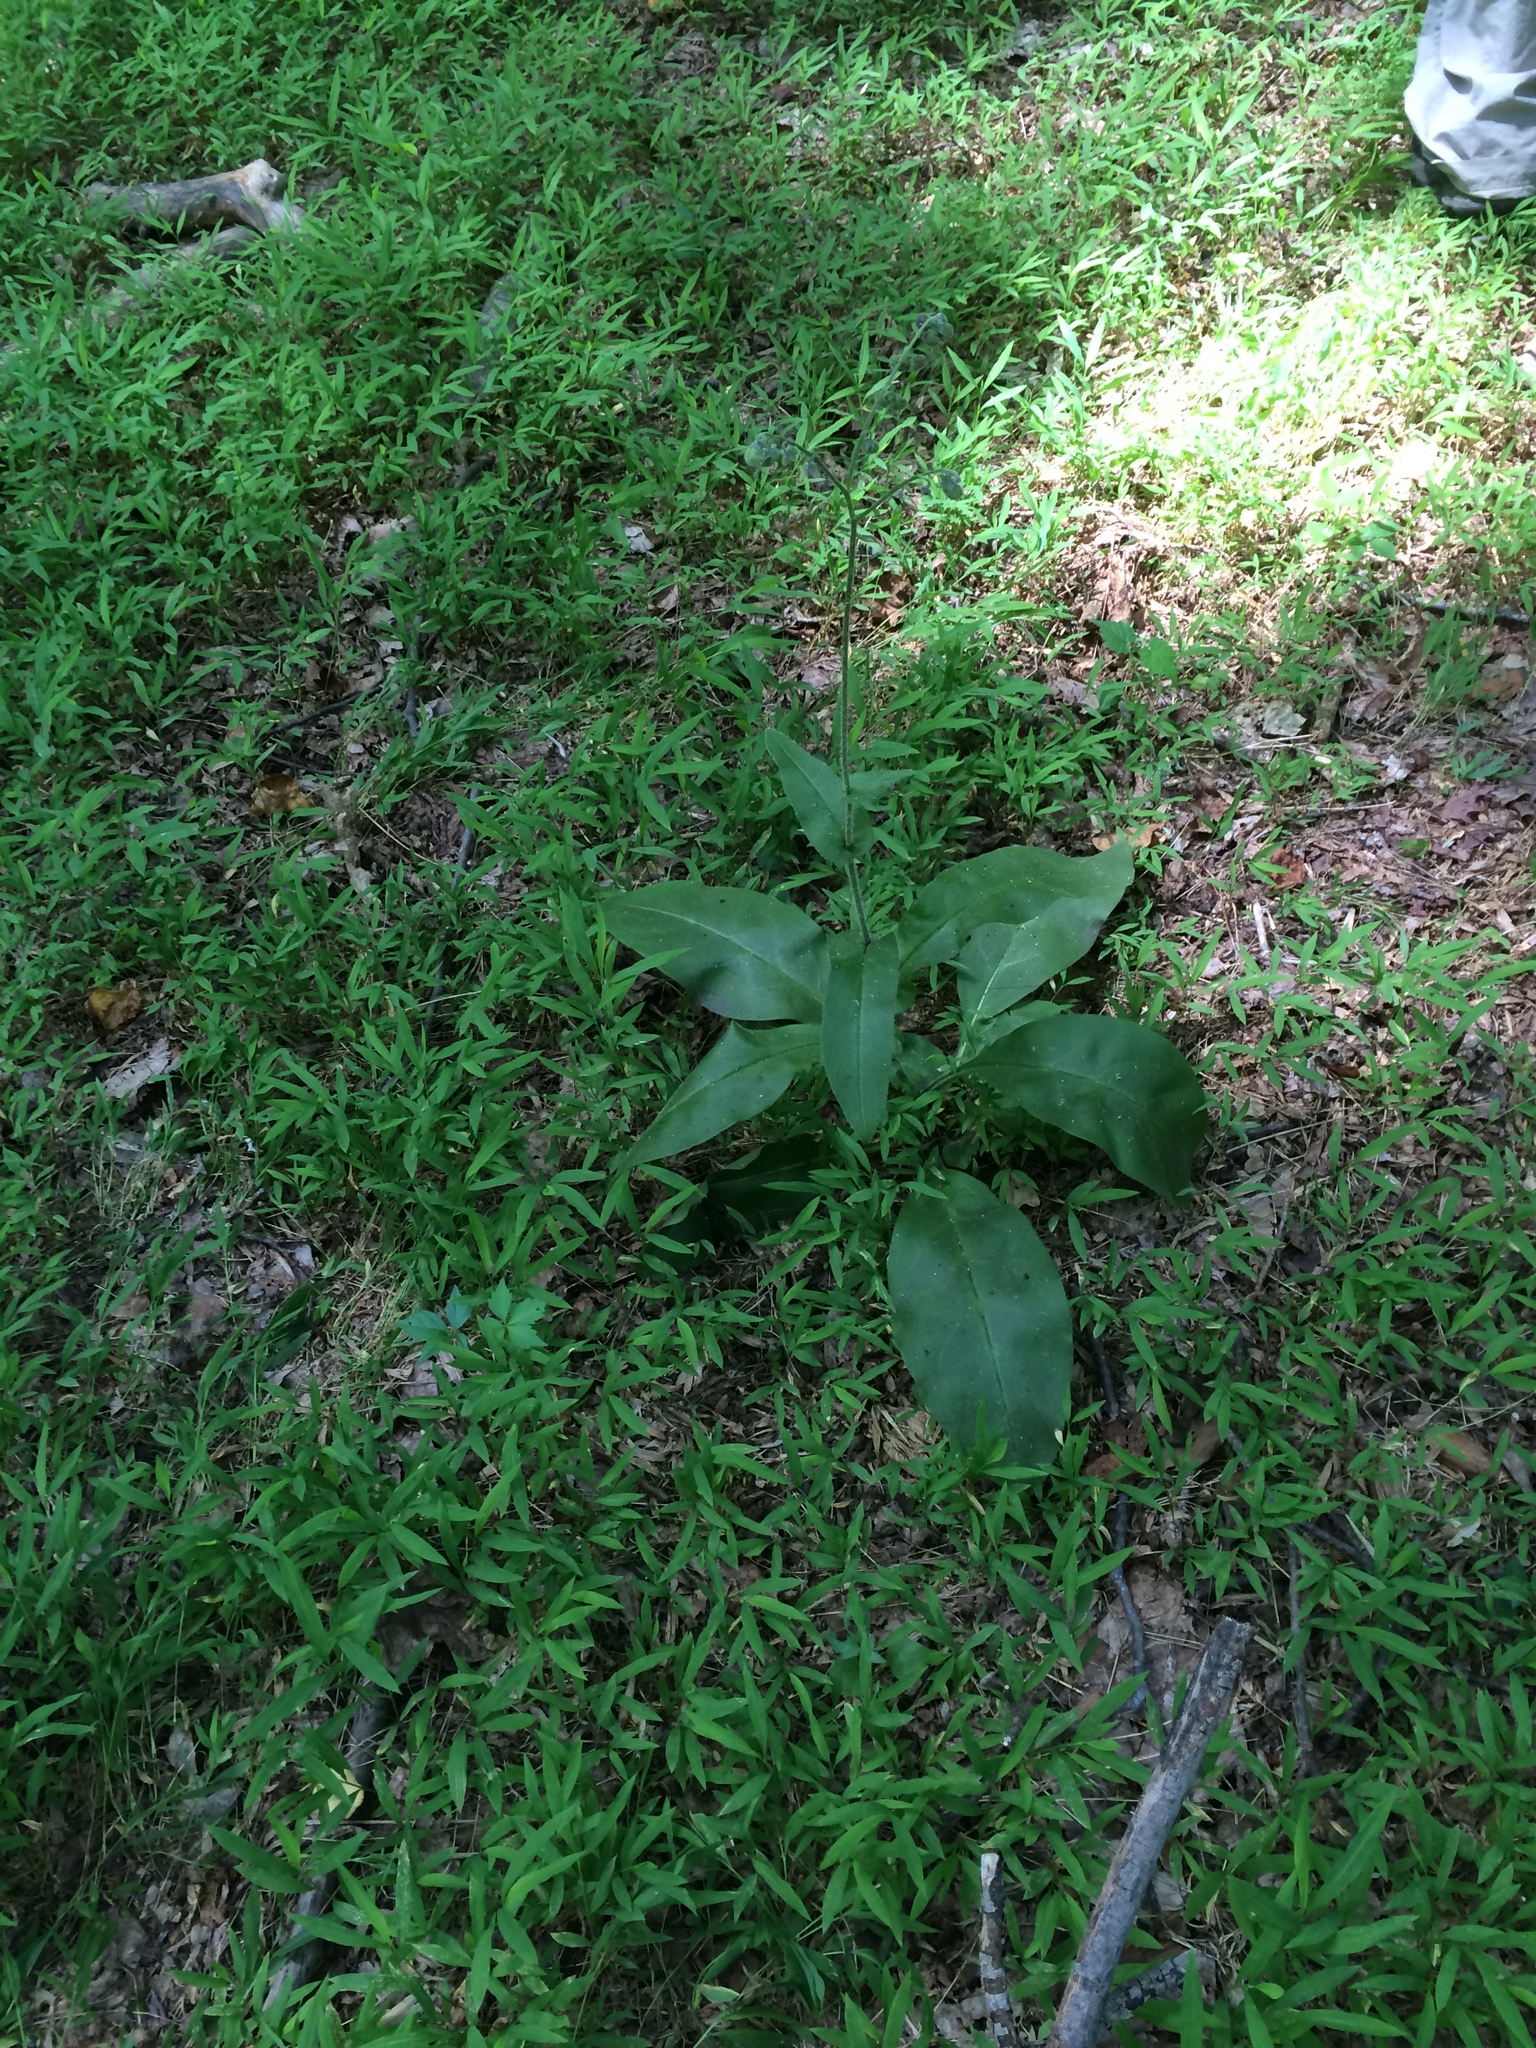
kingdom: Plantae
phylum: Tracheophyta
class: Magnoliopsida
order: Boraginales
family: Boraginaceae
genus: Andersonglossum
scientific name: Andersonglossum virginianum
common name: Wild comfrey
